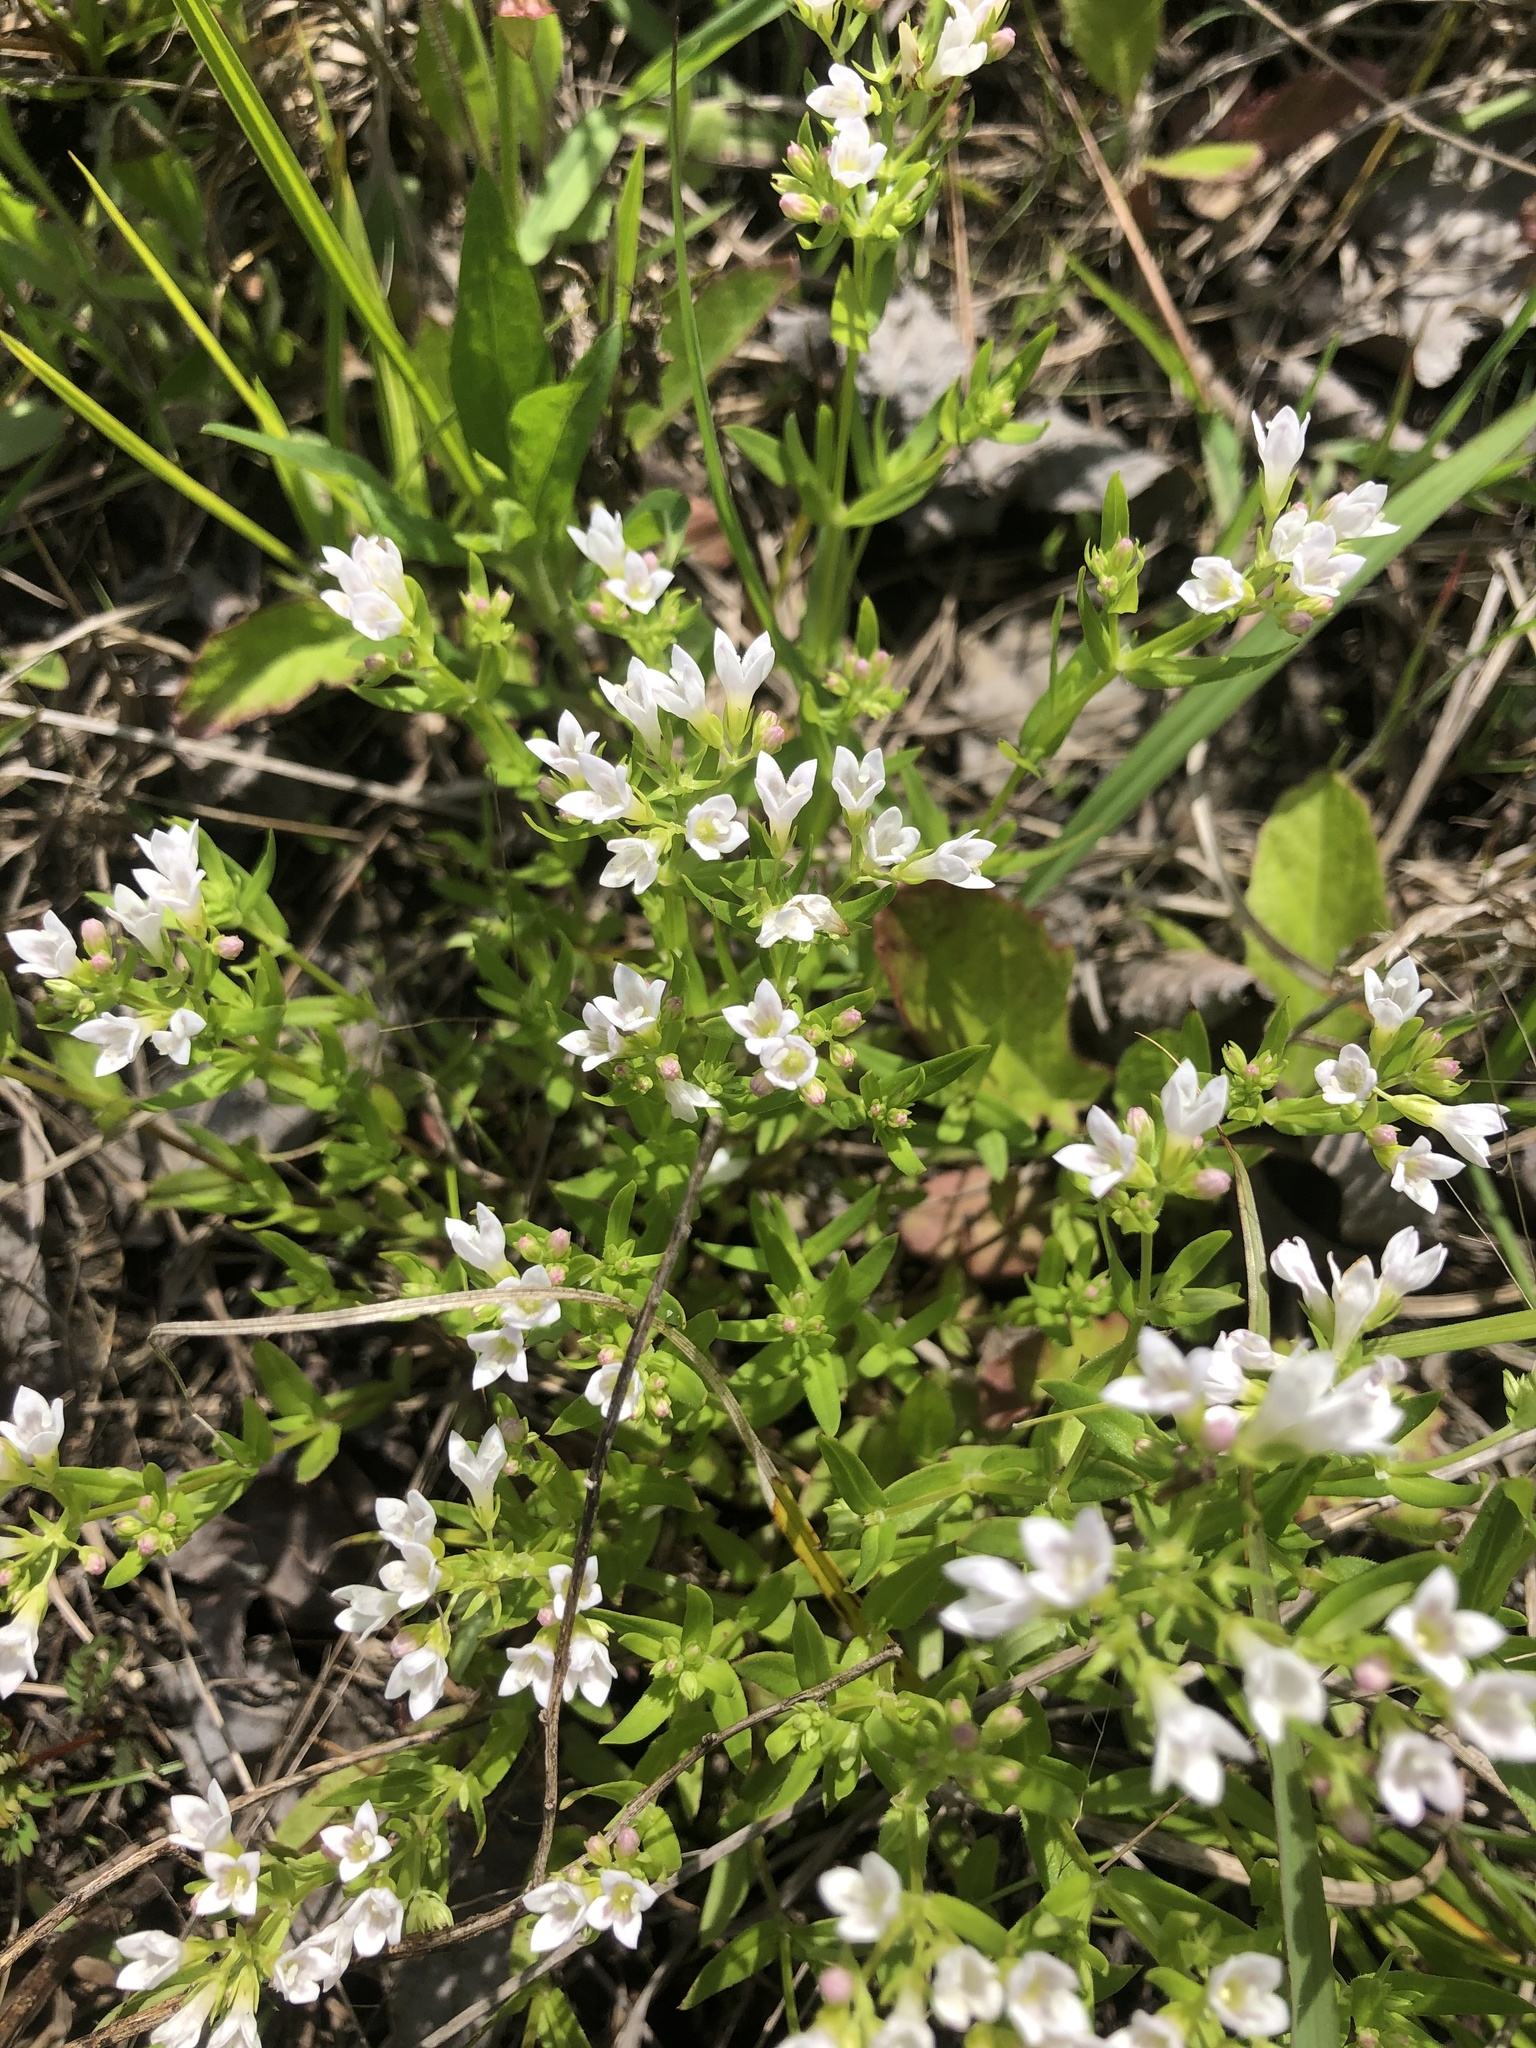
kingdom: Plantae
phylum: Tracheophyta
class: Magnoliopsida
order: Gentianales
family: Rubiaceae
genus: Houstonia
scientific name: Houstonia purpurea
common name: Summer bluet
